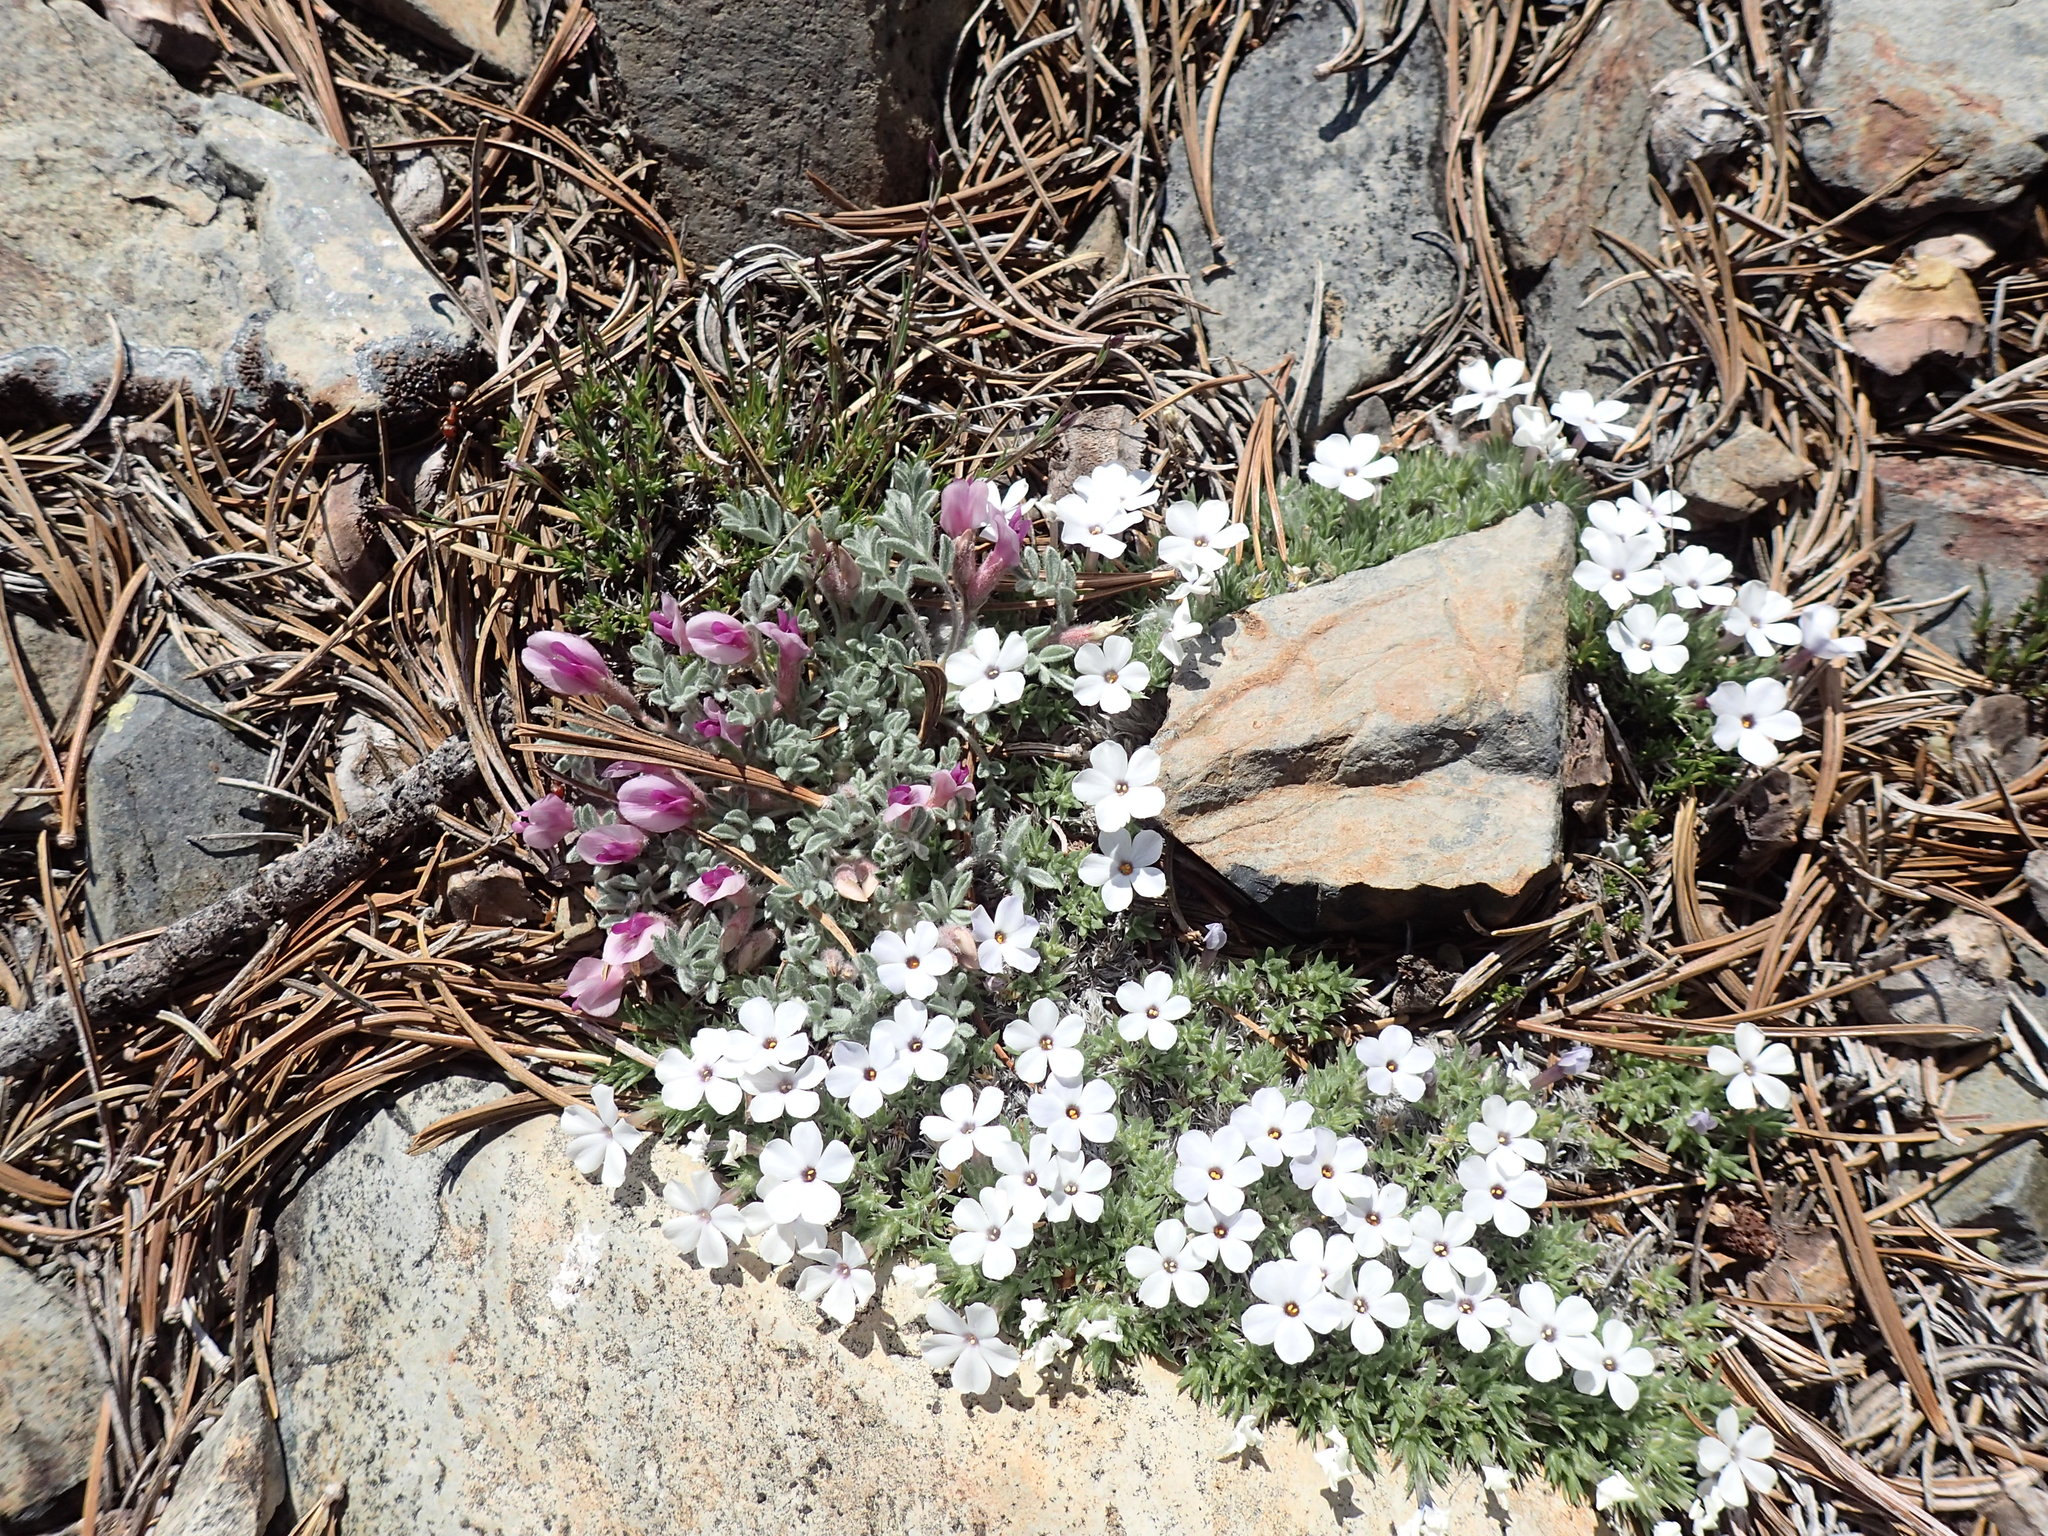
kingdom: Plantae
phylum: Tracheophyta
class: Magnoliopsida
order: Ericales
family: Polemoniaceae
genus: Phlox
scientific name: Phlox condensata
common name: Compact phlox
